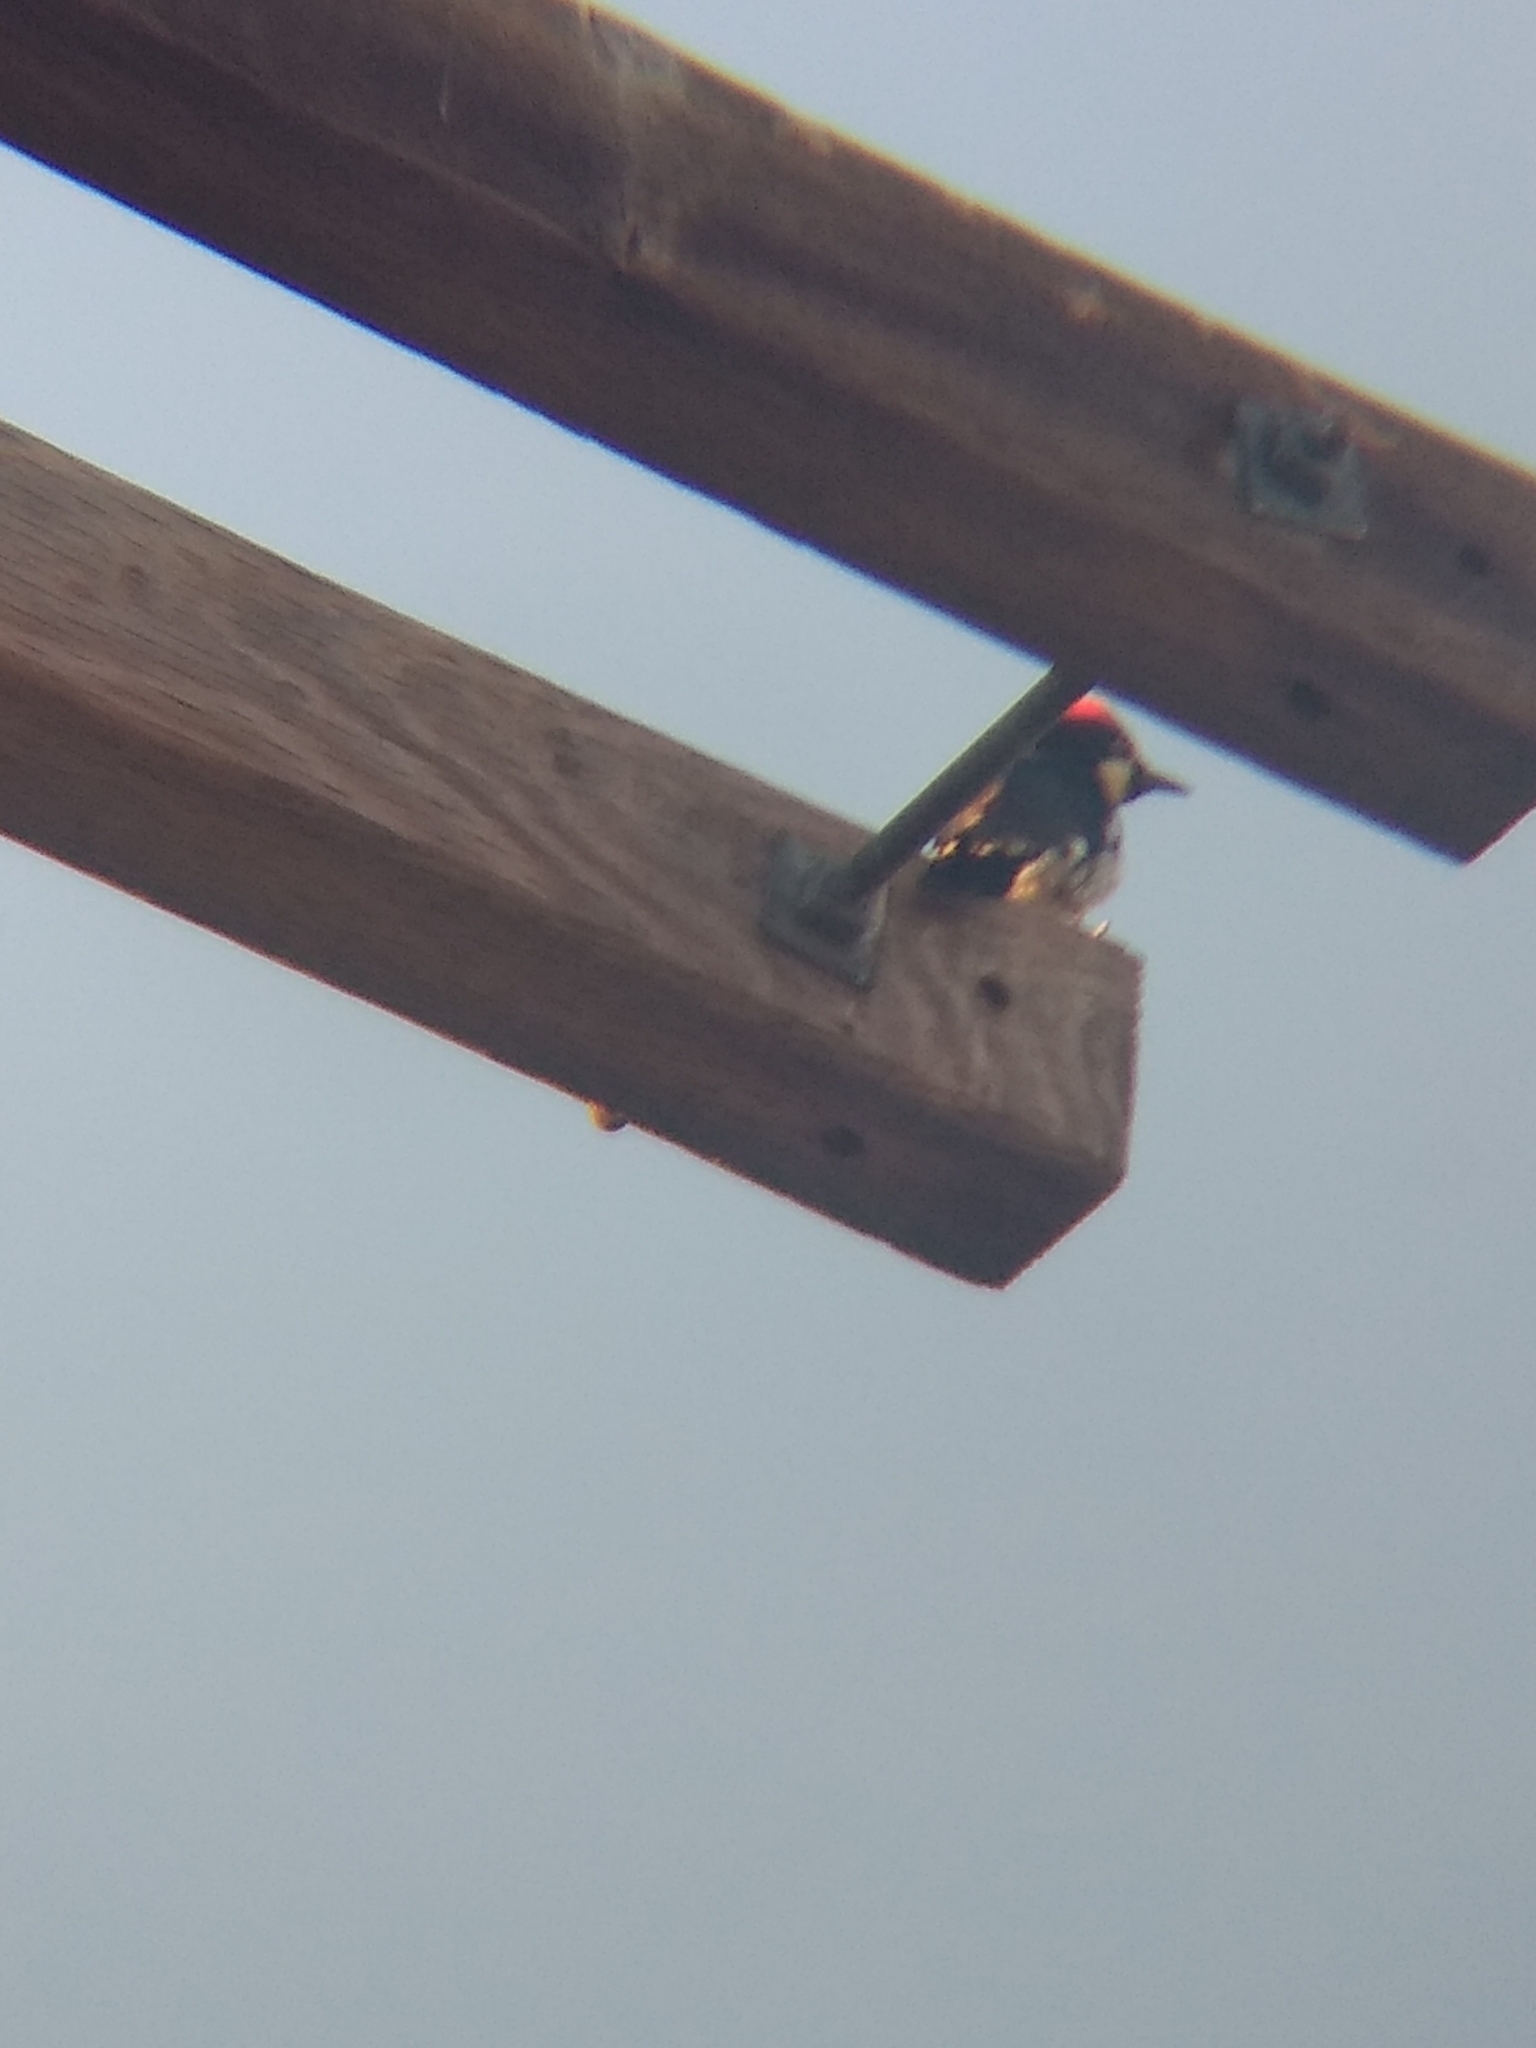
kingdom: Animalia
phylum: Chordata
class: Aves
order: Piciformes
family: Picidae
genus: Melanerpes
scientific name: Melanerpes formicivorus
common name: Acorn woodpecker
